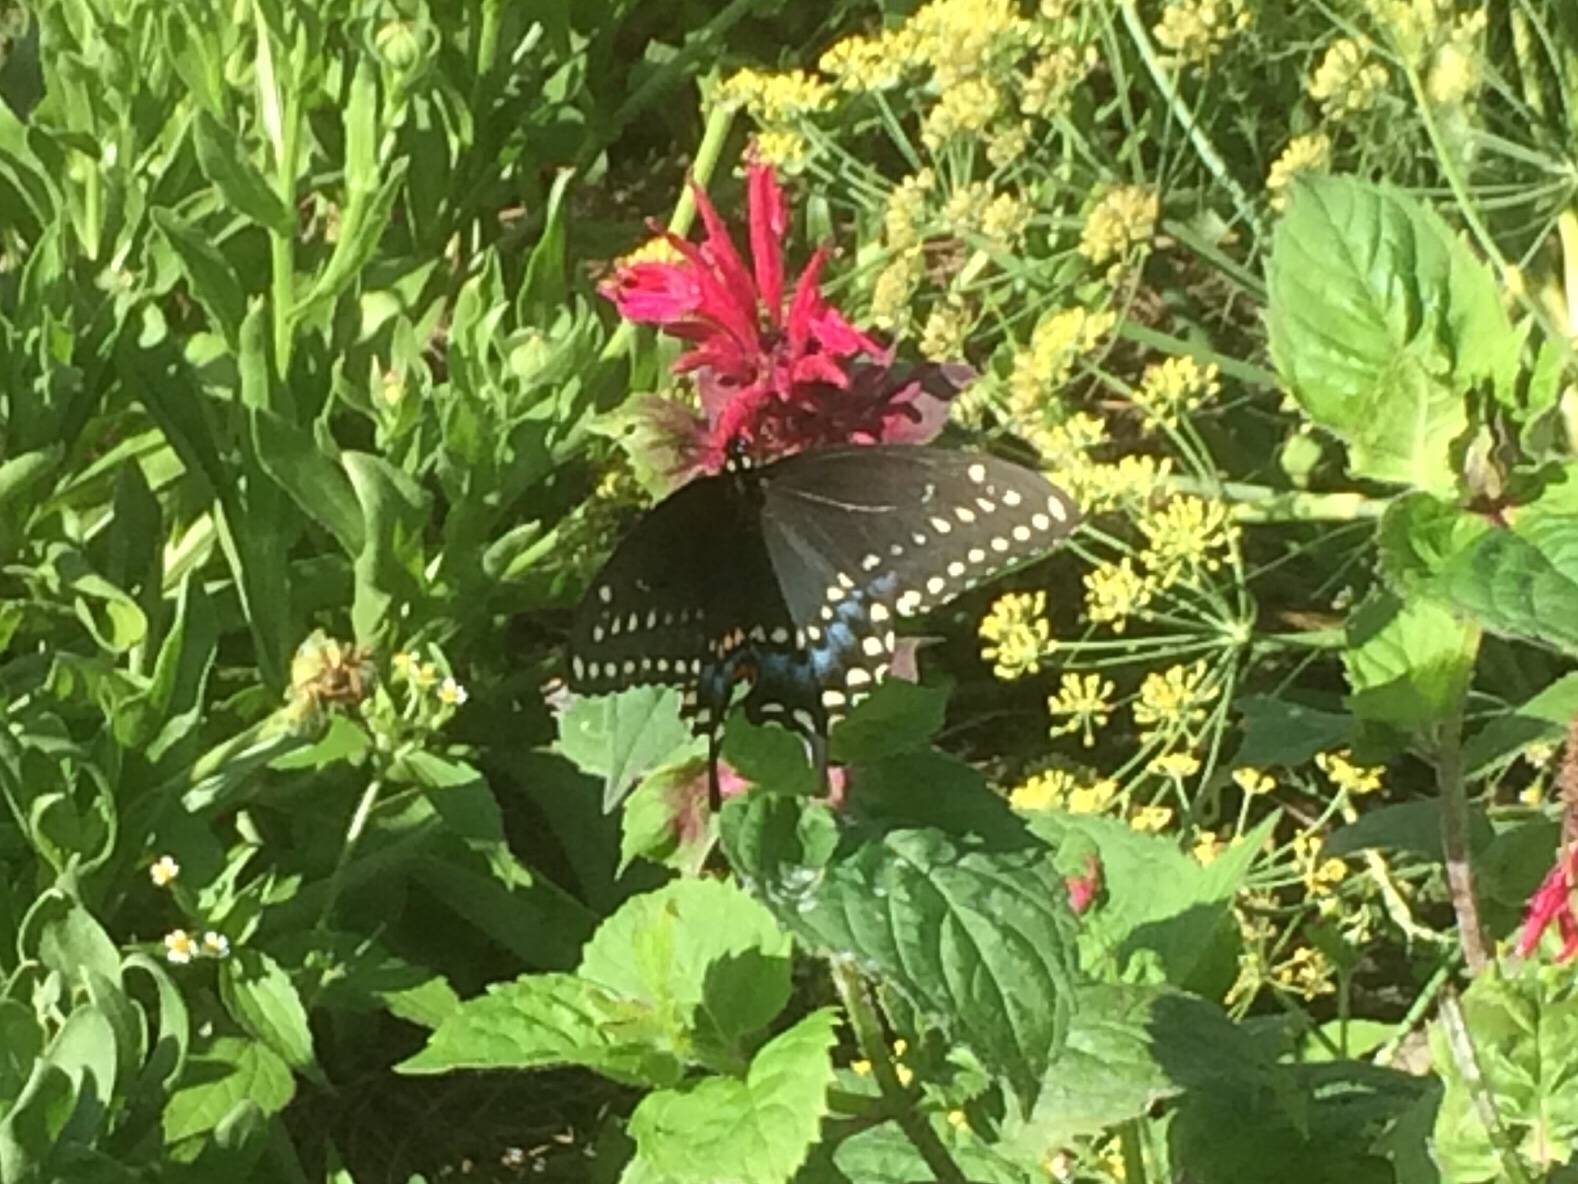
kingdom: Animalia
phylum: Arthropoda
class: Insecta
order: Lepidoptera
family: Papilionidae
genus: Papilio
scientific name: Papilio polyxenes
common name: Black swallowtail
